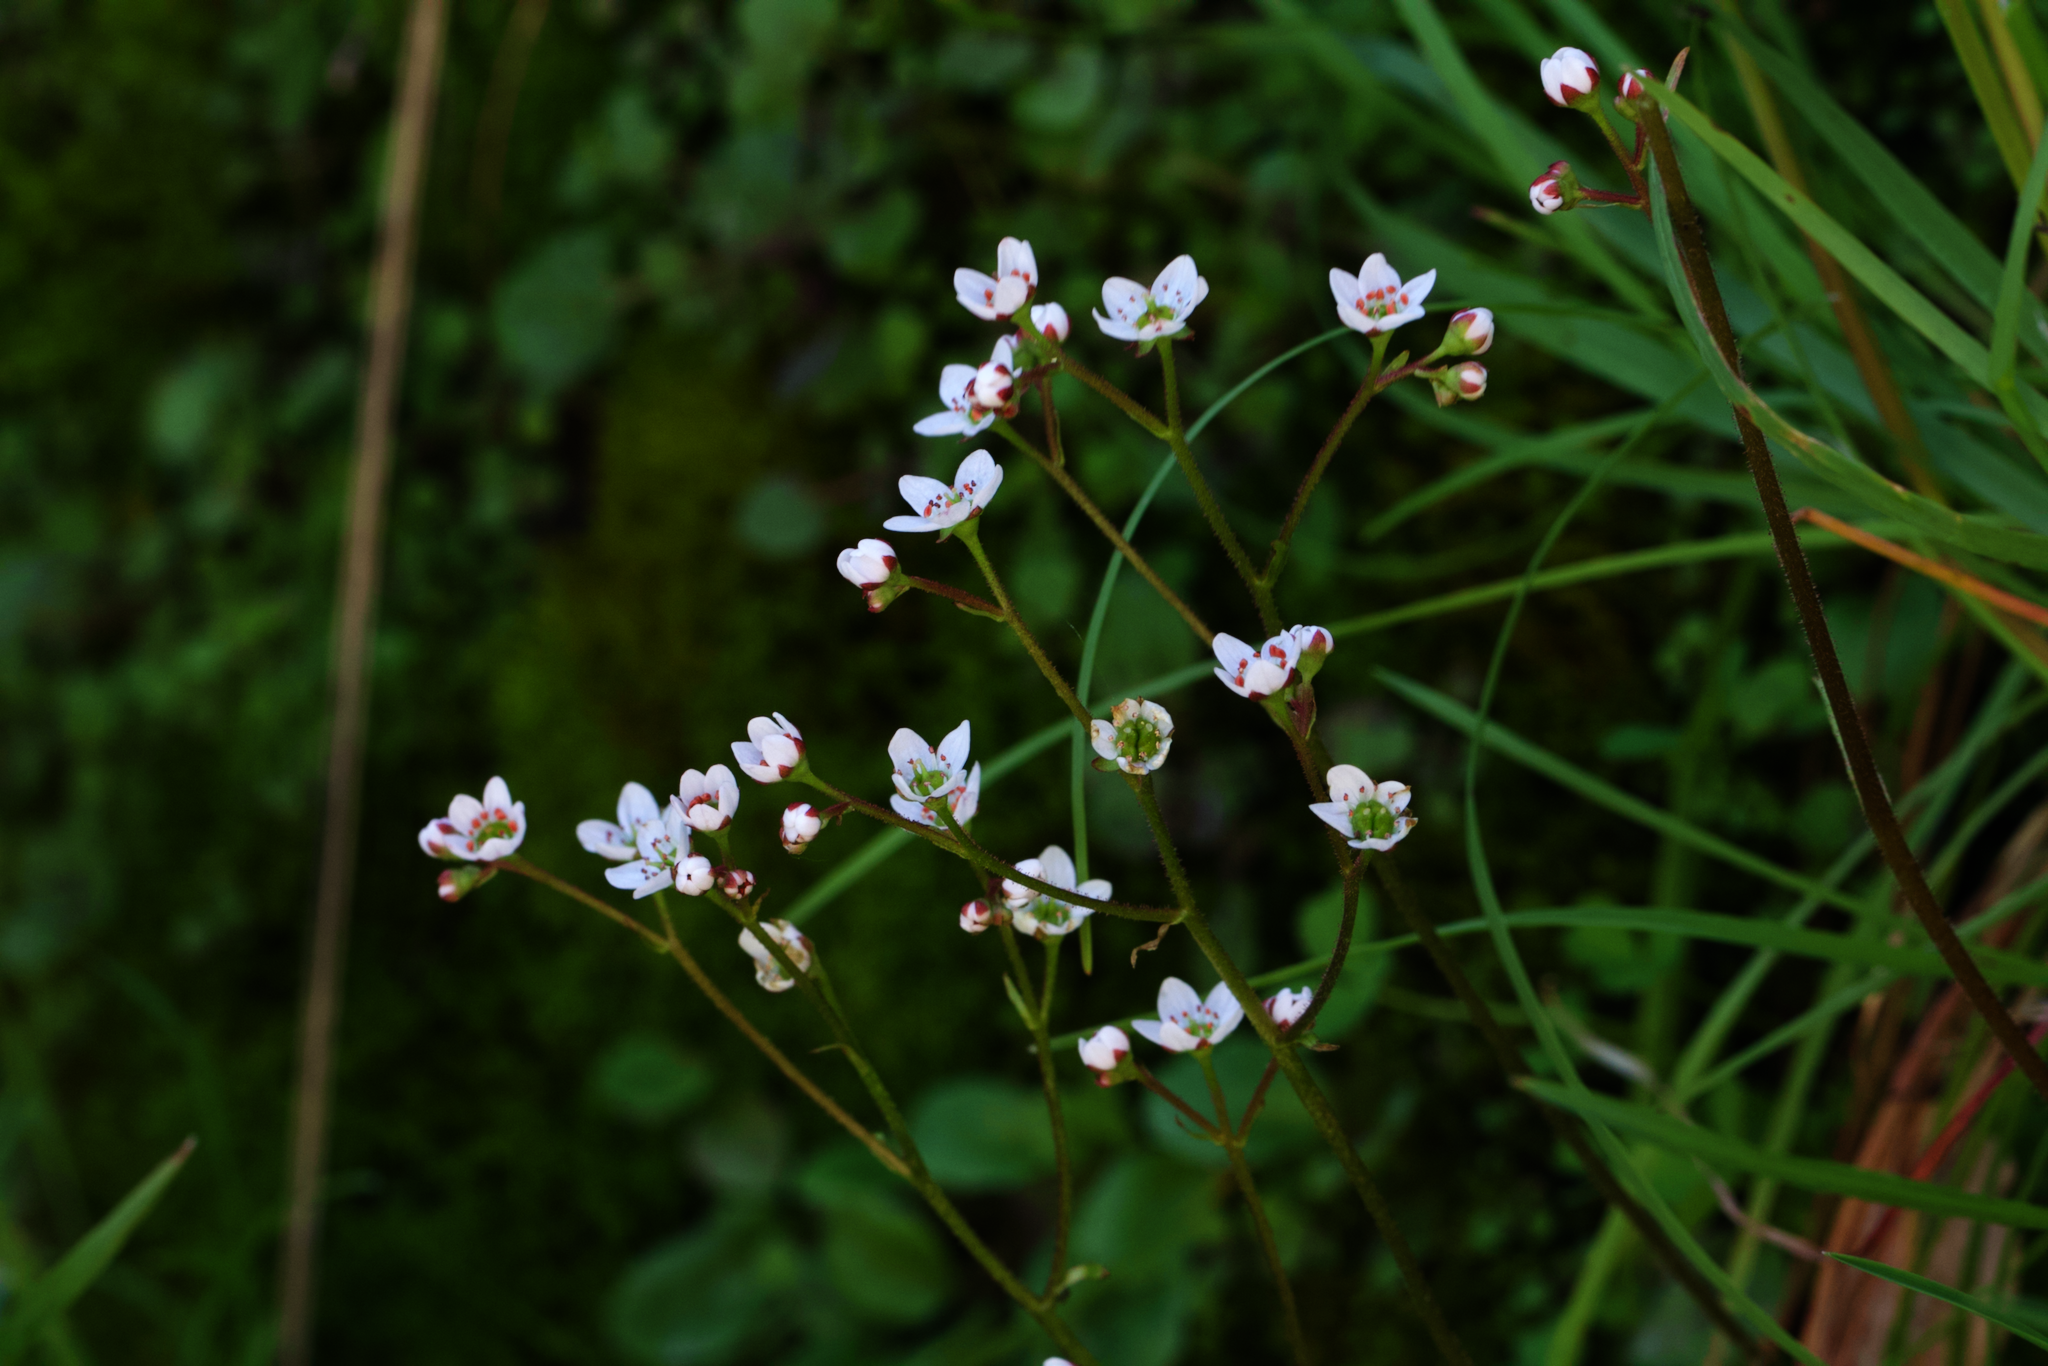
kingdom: Plantae
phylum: Tracheophyta
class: Magnoliopsida
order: Saxifragales
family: Saxifragaceae
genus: Micranthes
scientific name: Micranthes californica
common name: California saxifrage
